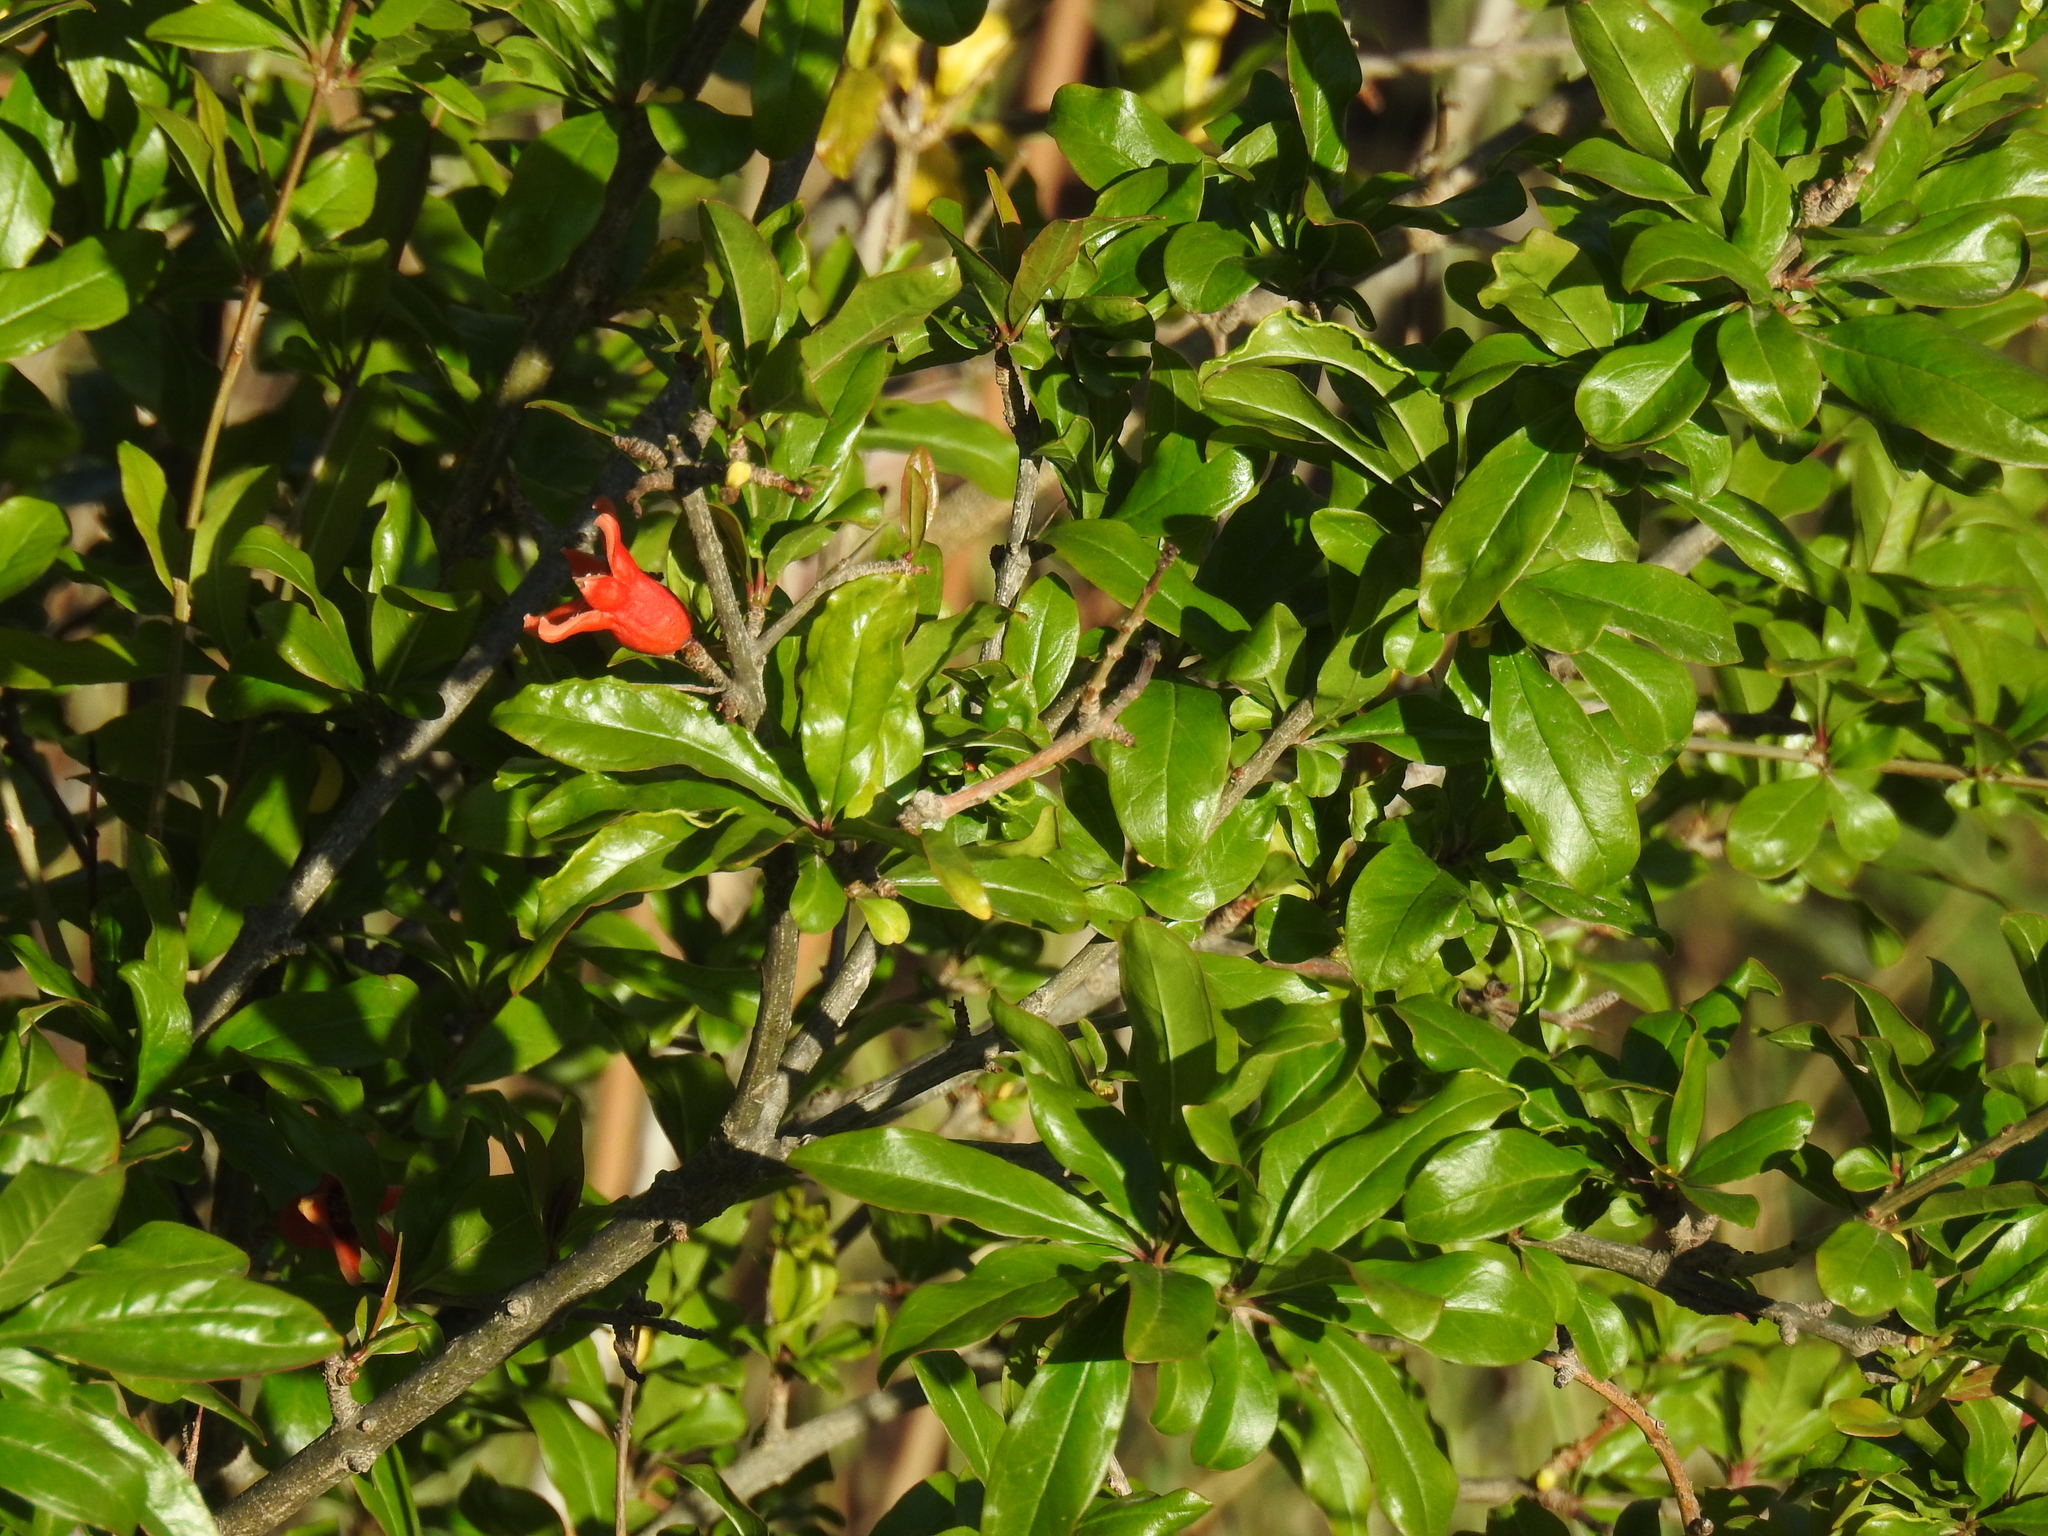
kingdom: Plantae
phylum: Tracheophyta
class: Magnoliopsida
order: Myrtales
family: Lythraceae
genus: Punica
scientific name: Punica granatum
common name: Pomegranate
